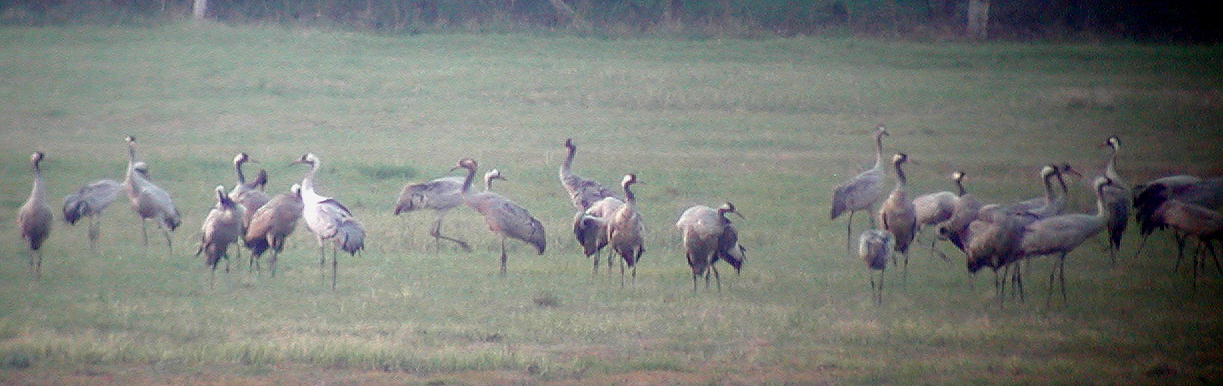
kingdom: Animalia
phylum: Chordata
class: Aves
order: Gruiformes
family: Gruidae
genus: Grus
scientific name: Grus grus
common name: Common crane
